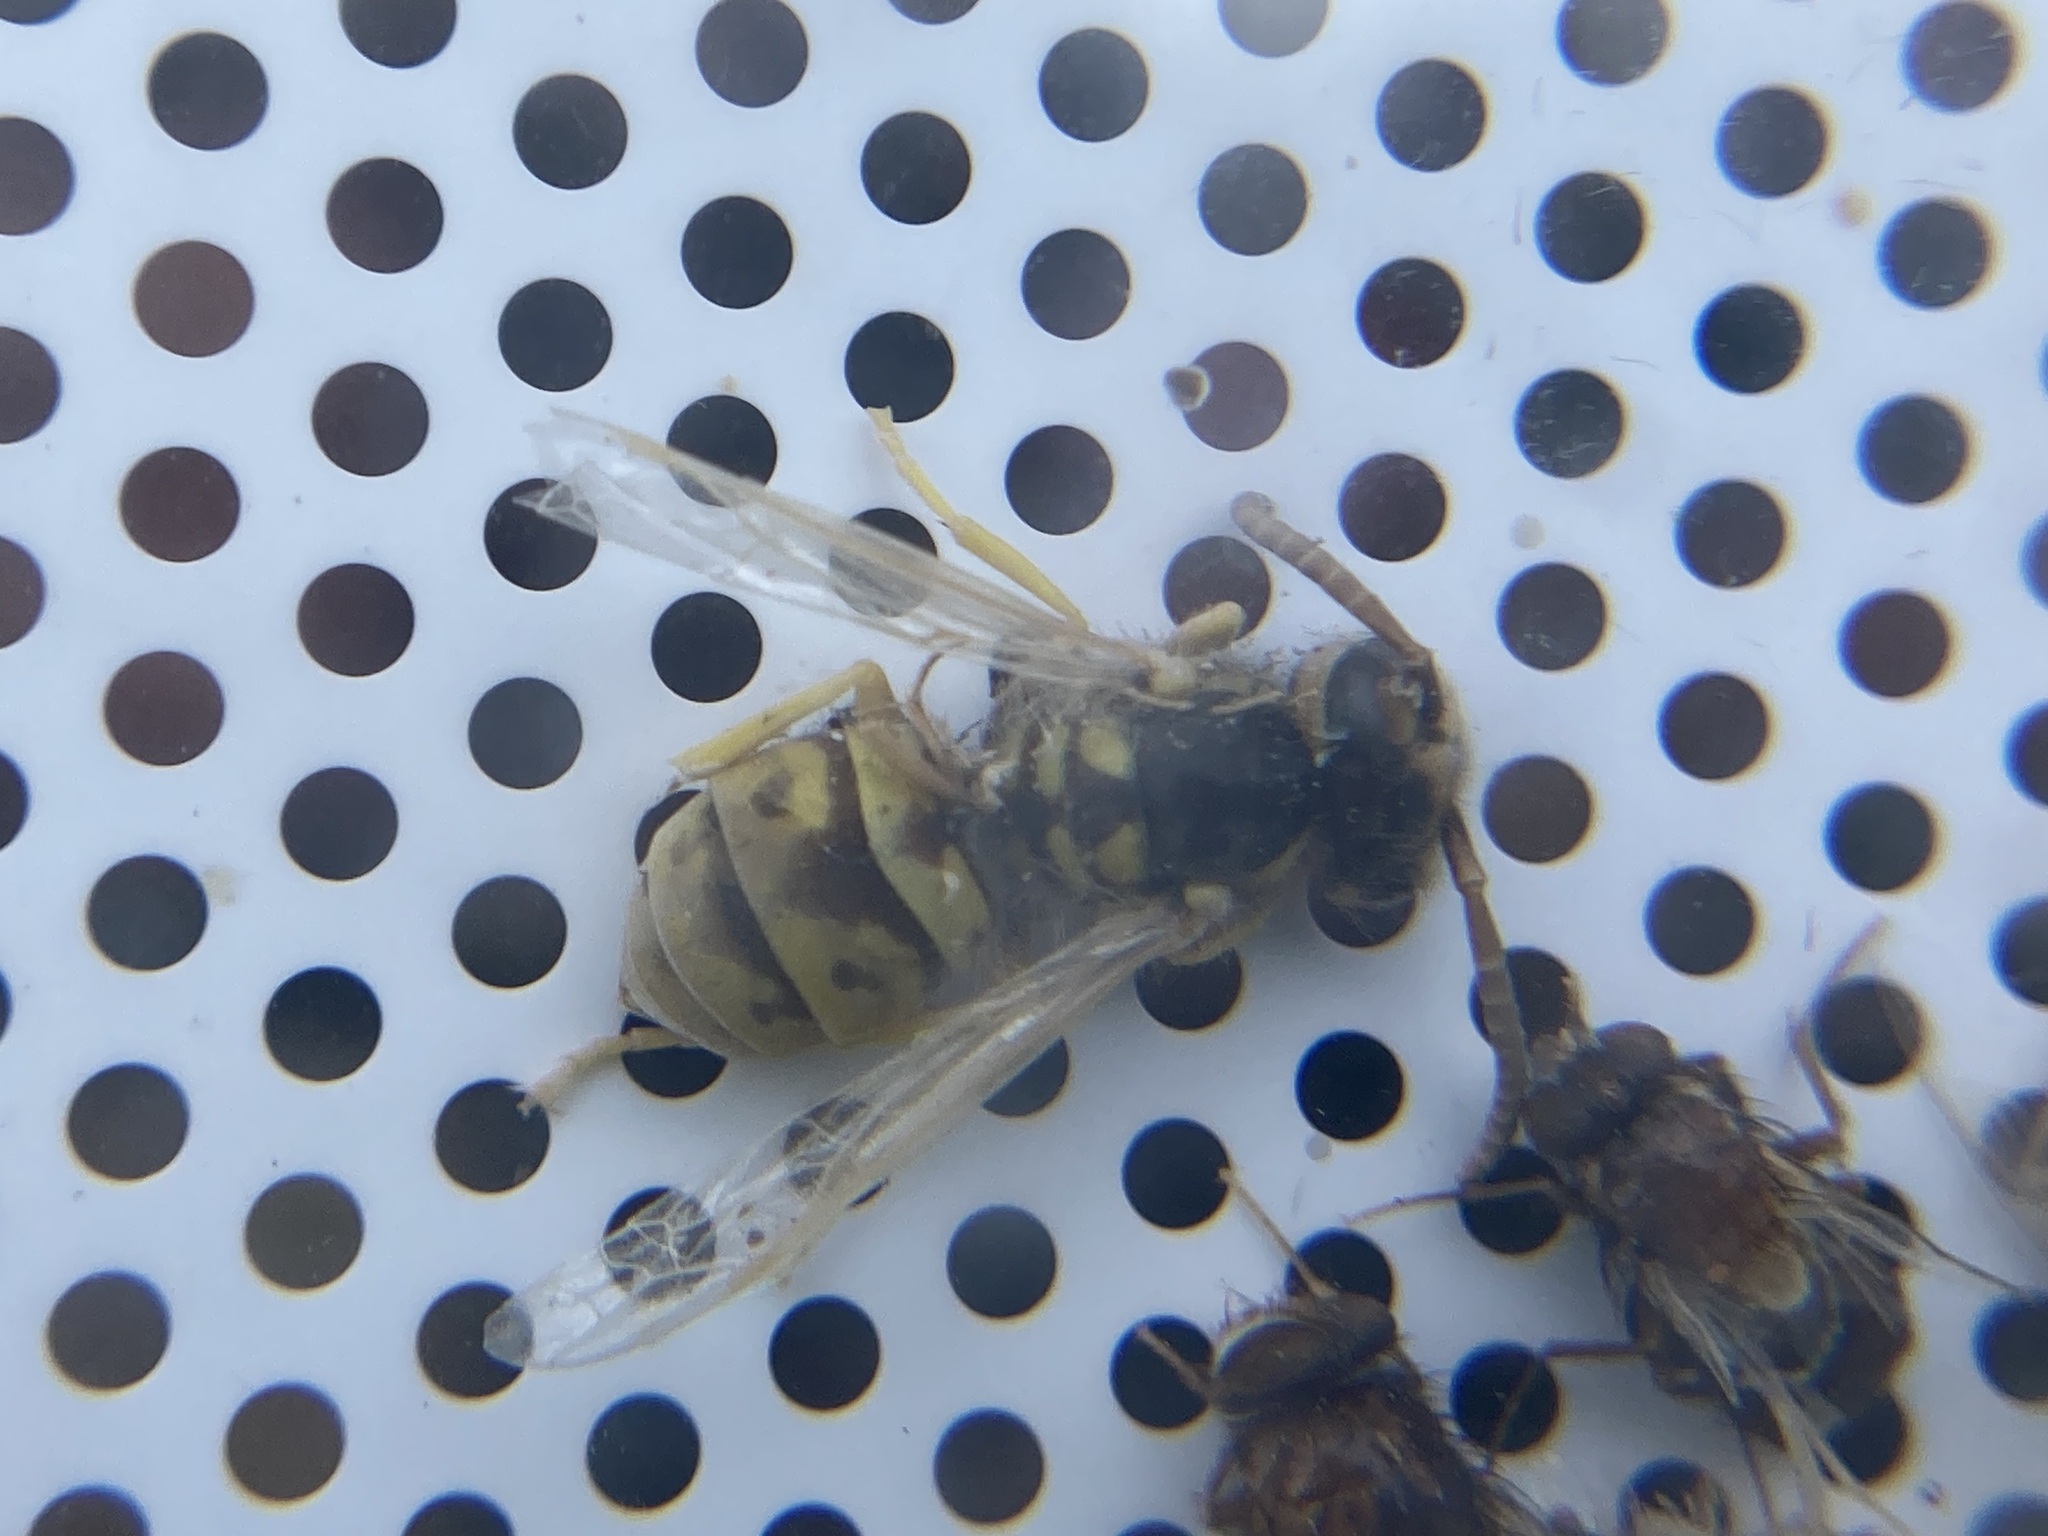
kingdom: Animalia
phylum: Arthropoda
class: Insecta
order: Hymenoptera
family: Vespidae
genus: Vespula
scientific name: Vespula germanica
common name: German wasp
